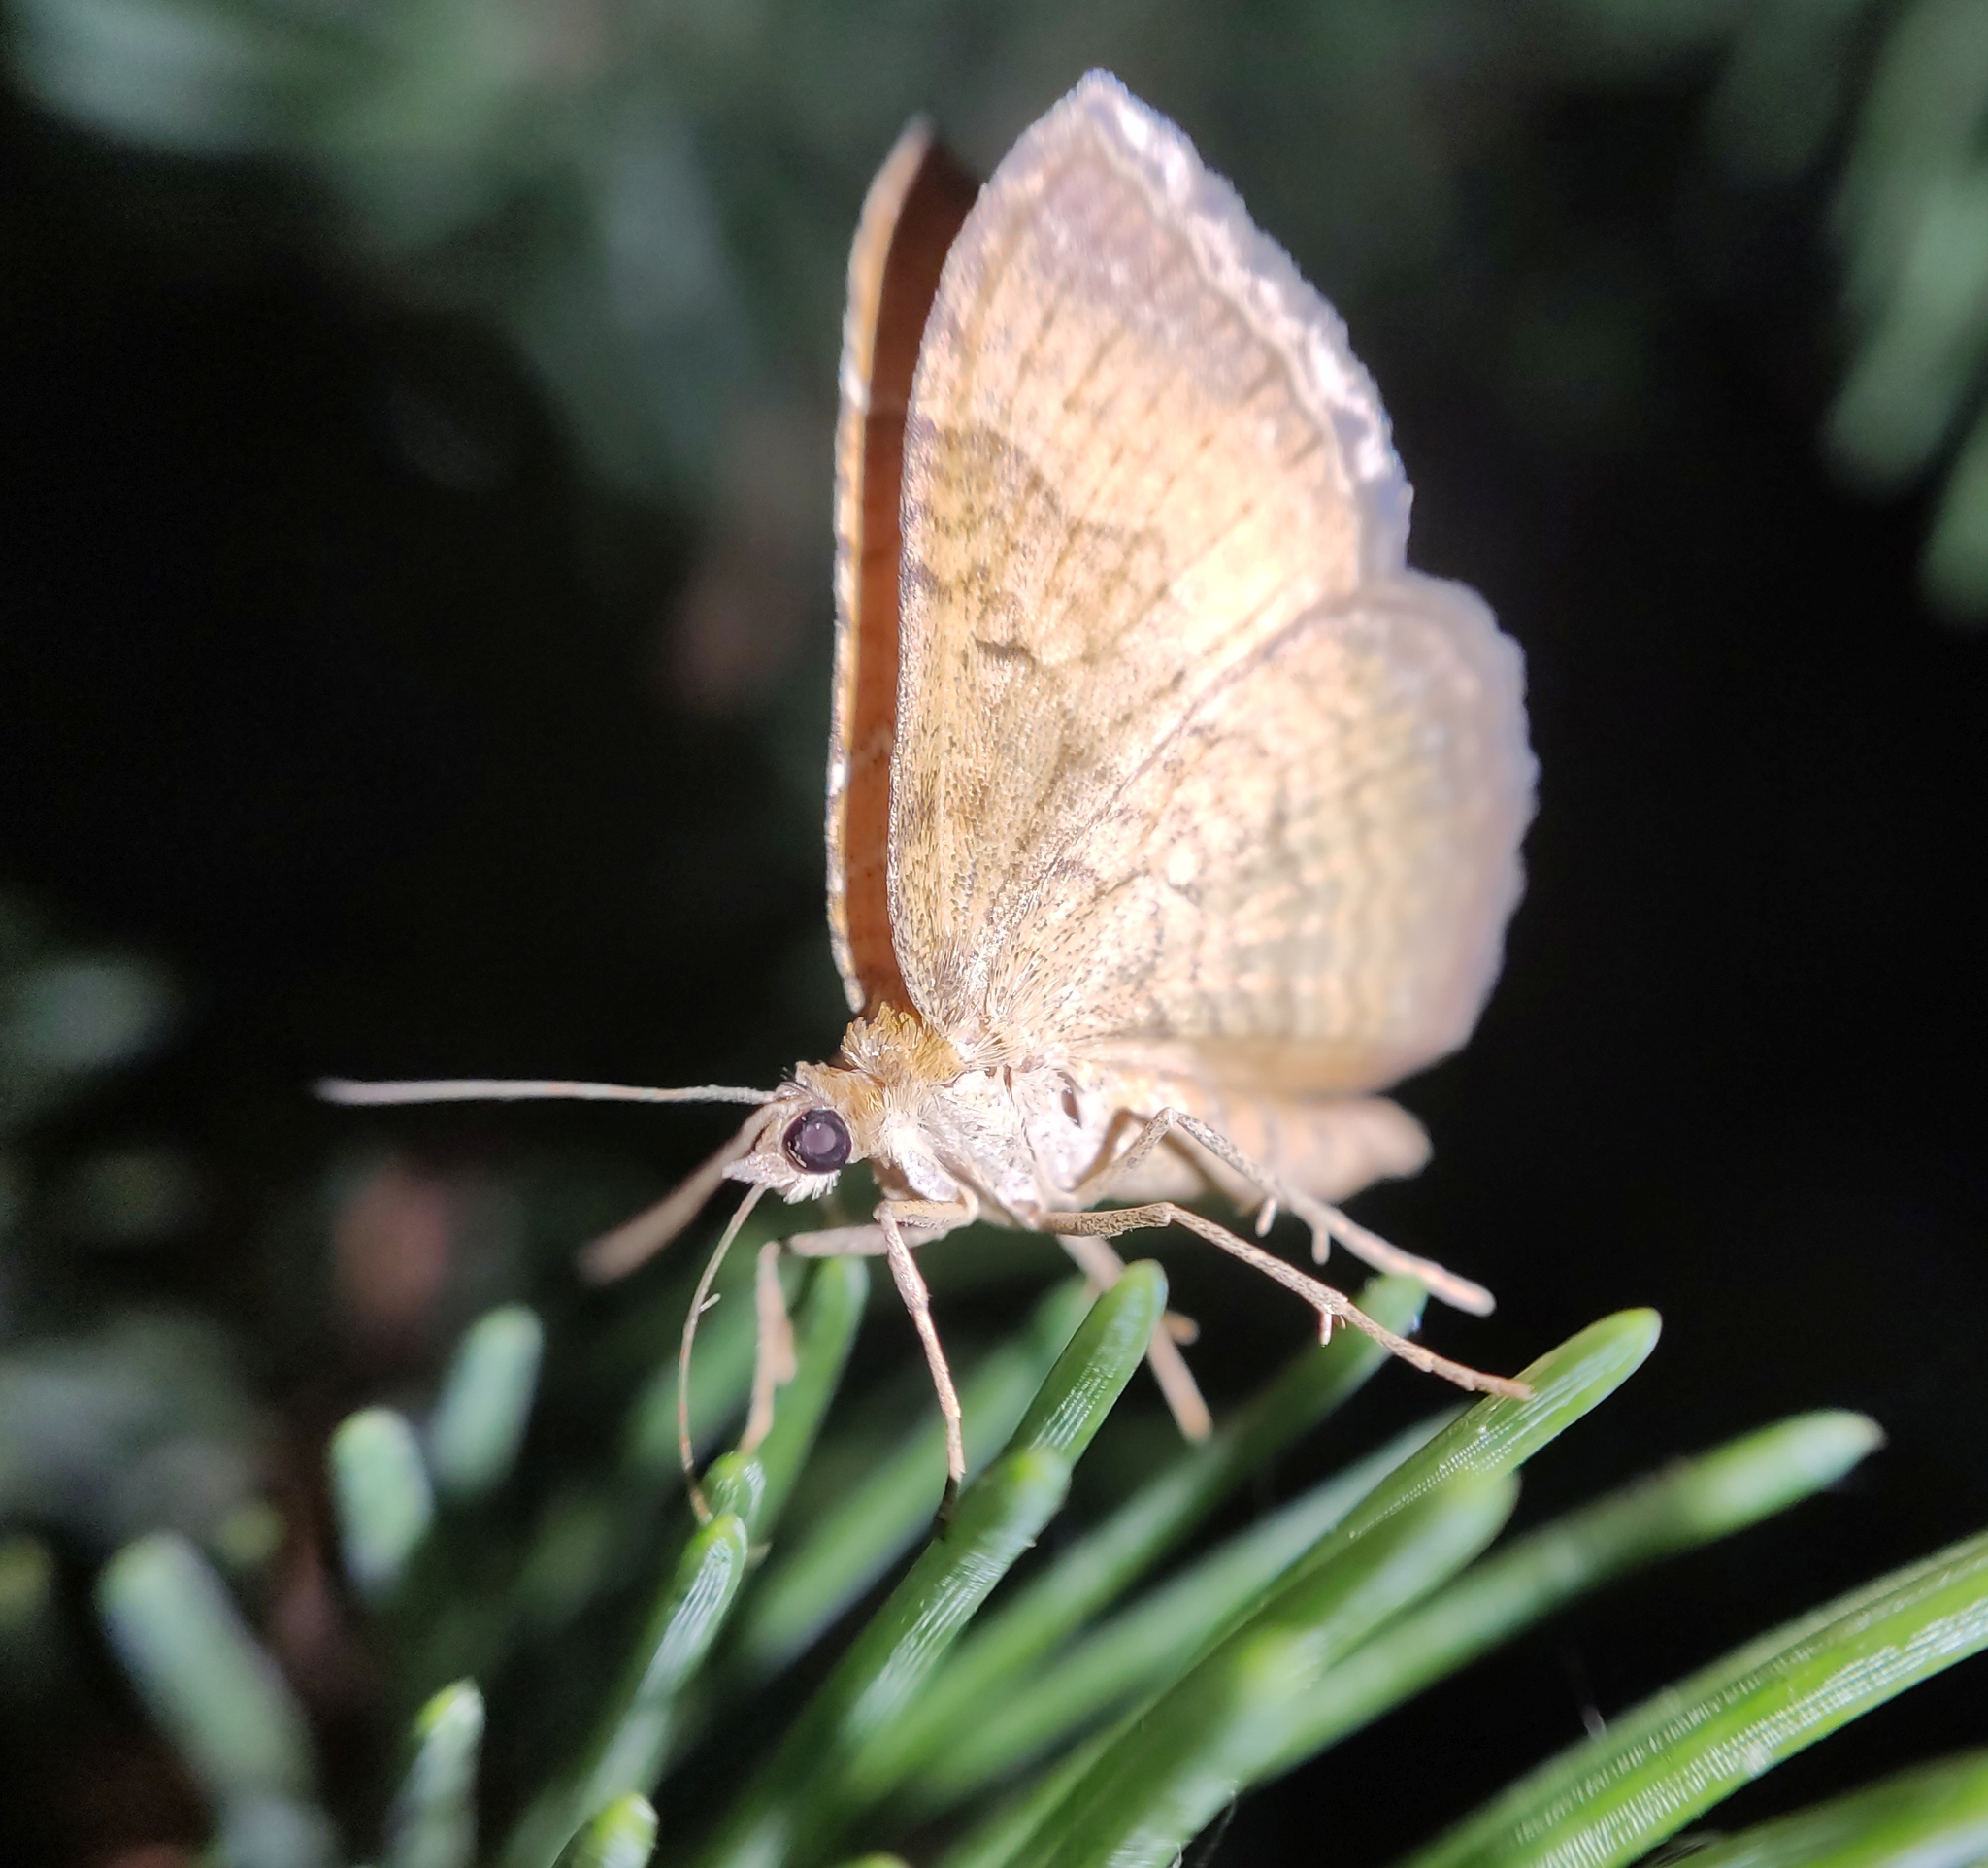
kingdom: Animalia
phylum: Arthropoda
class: Insecta
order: Lepidoptera
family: Geometridae
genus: Camptogramma
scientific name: Camptogramma bilineata
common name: Yellow shell
